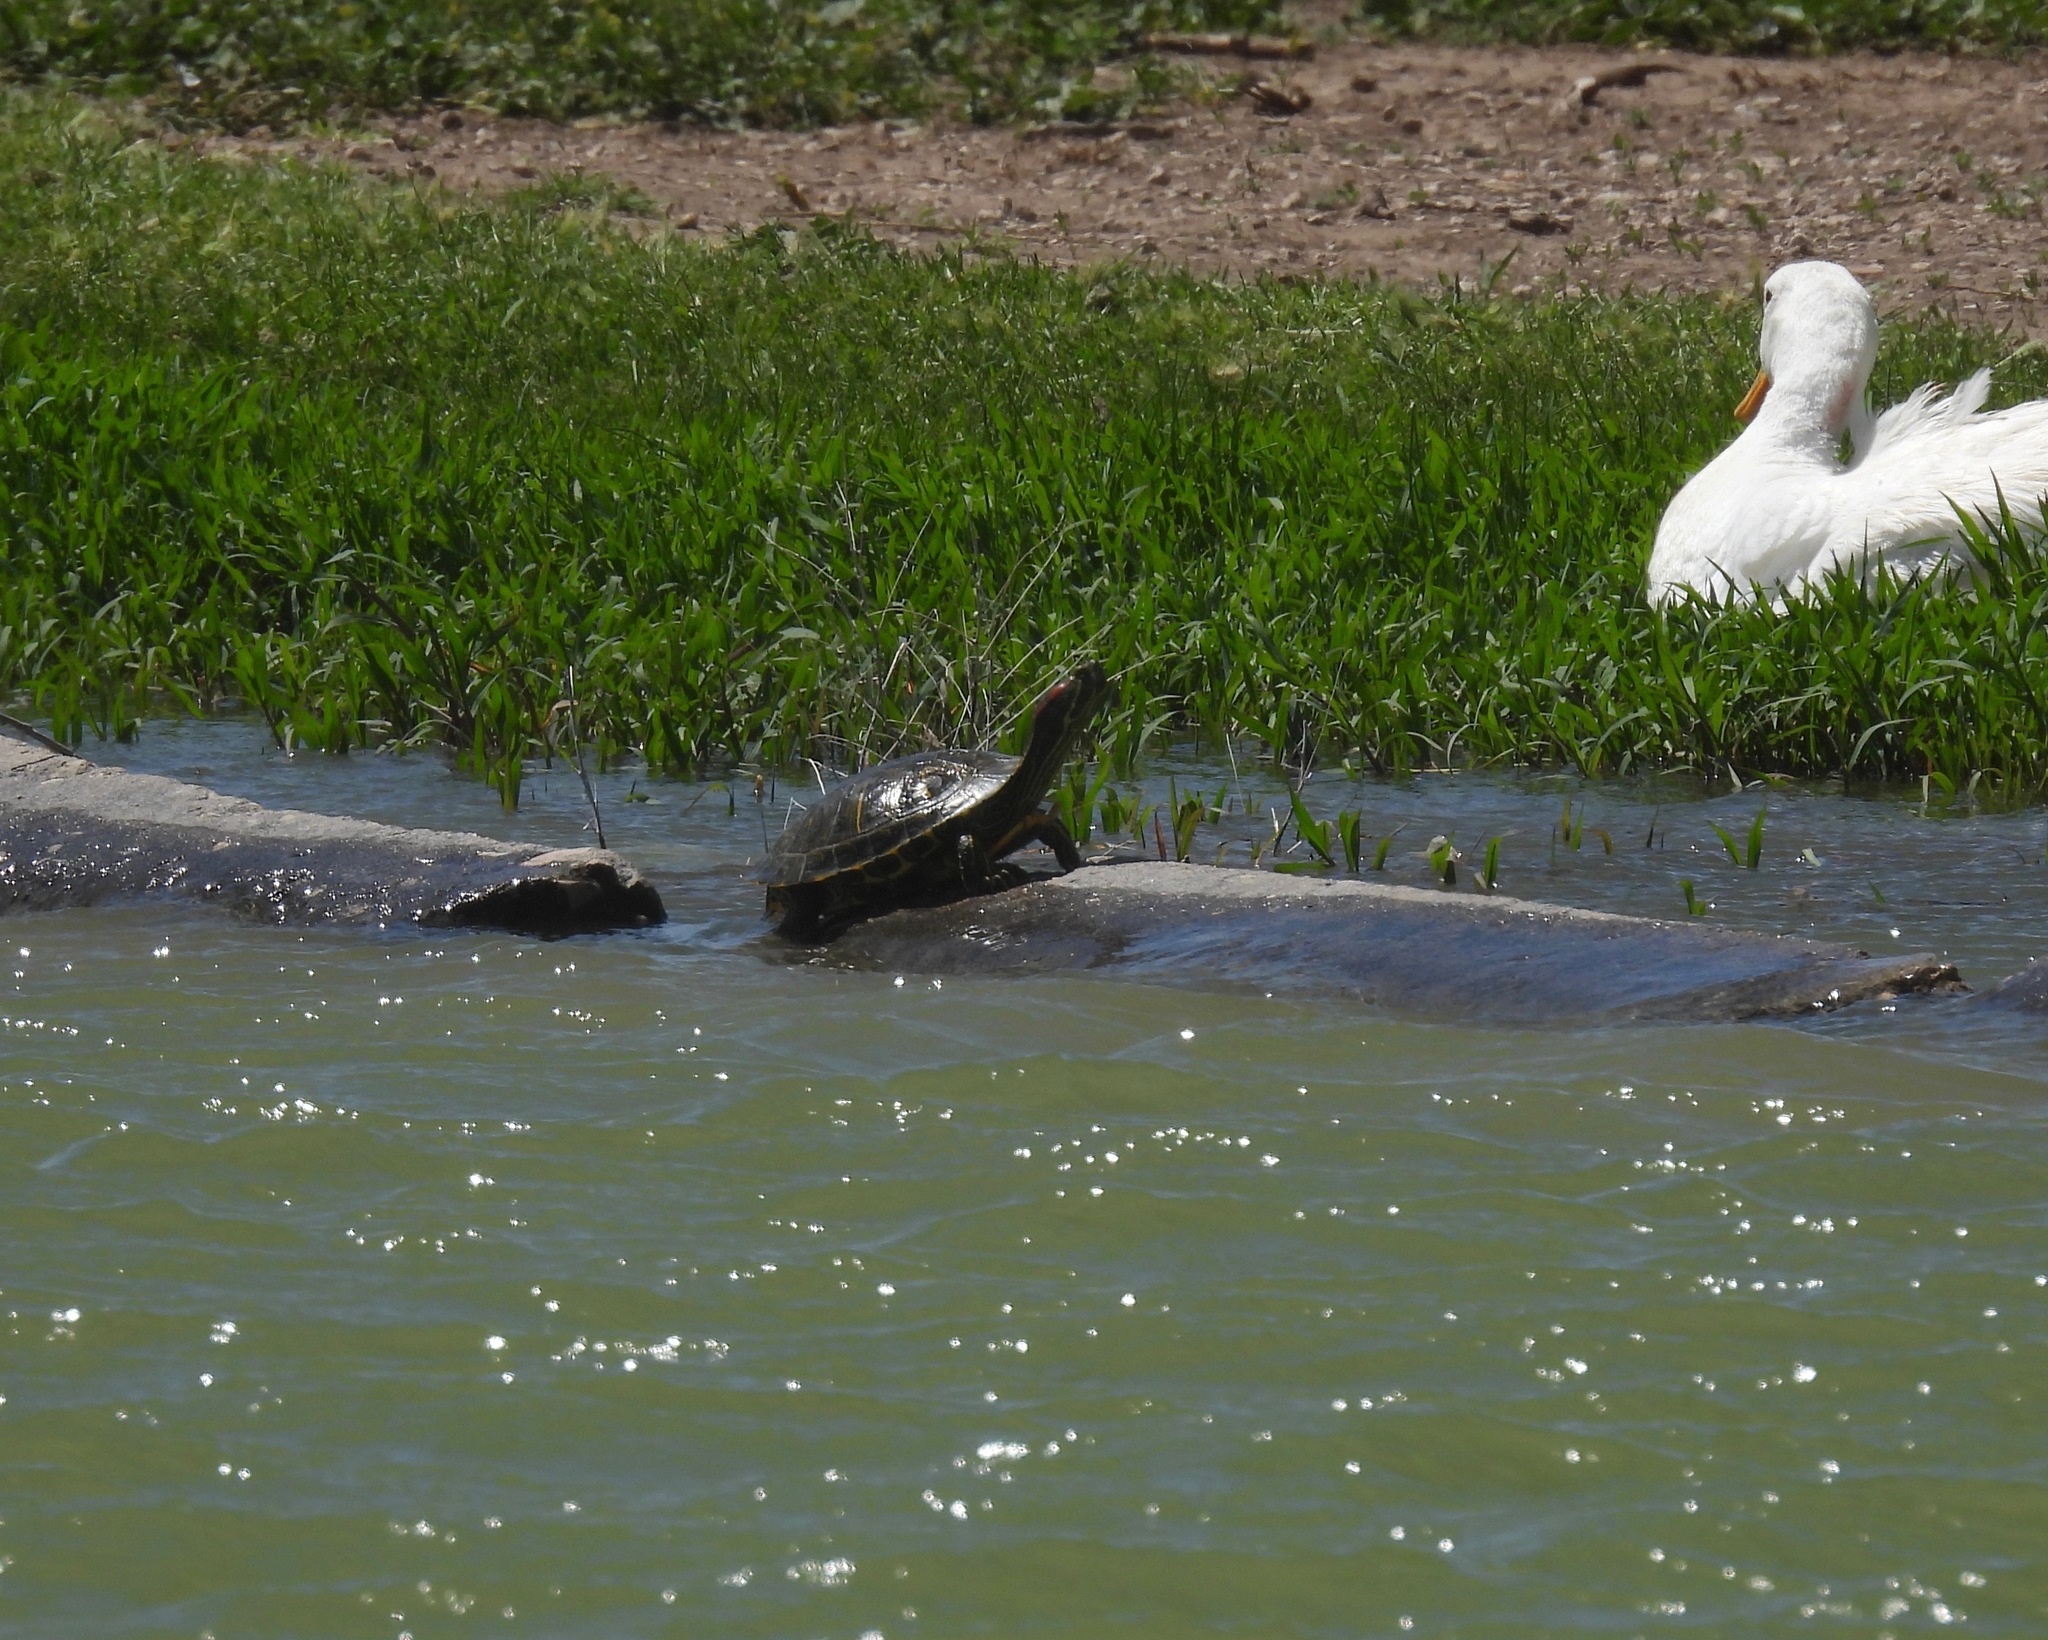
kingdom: Animalia
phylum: Chordata
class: Testudines
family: Emydidae
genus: Trachemys
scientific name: Trachemys scripta
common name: Slider
